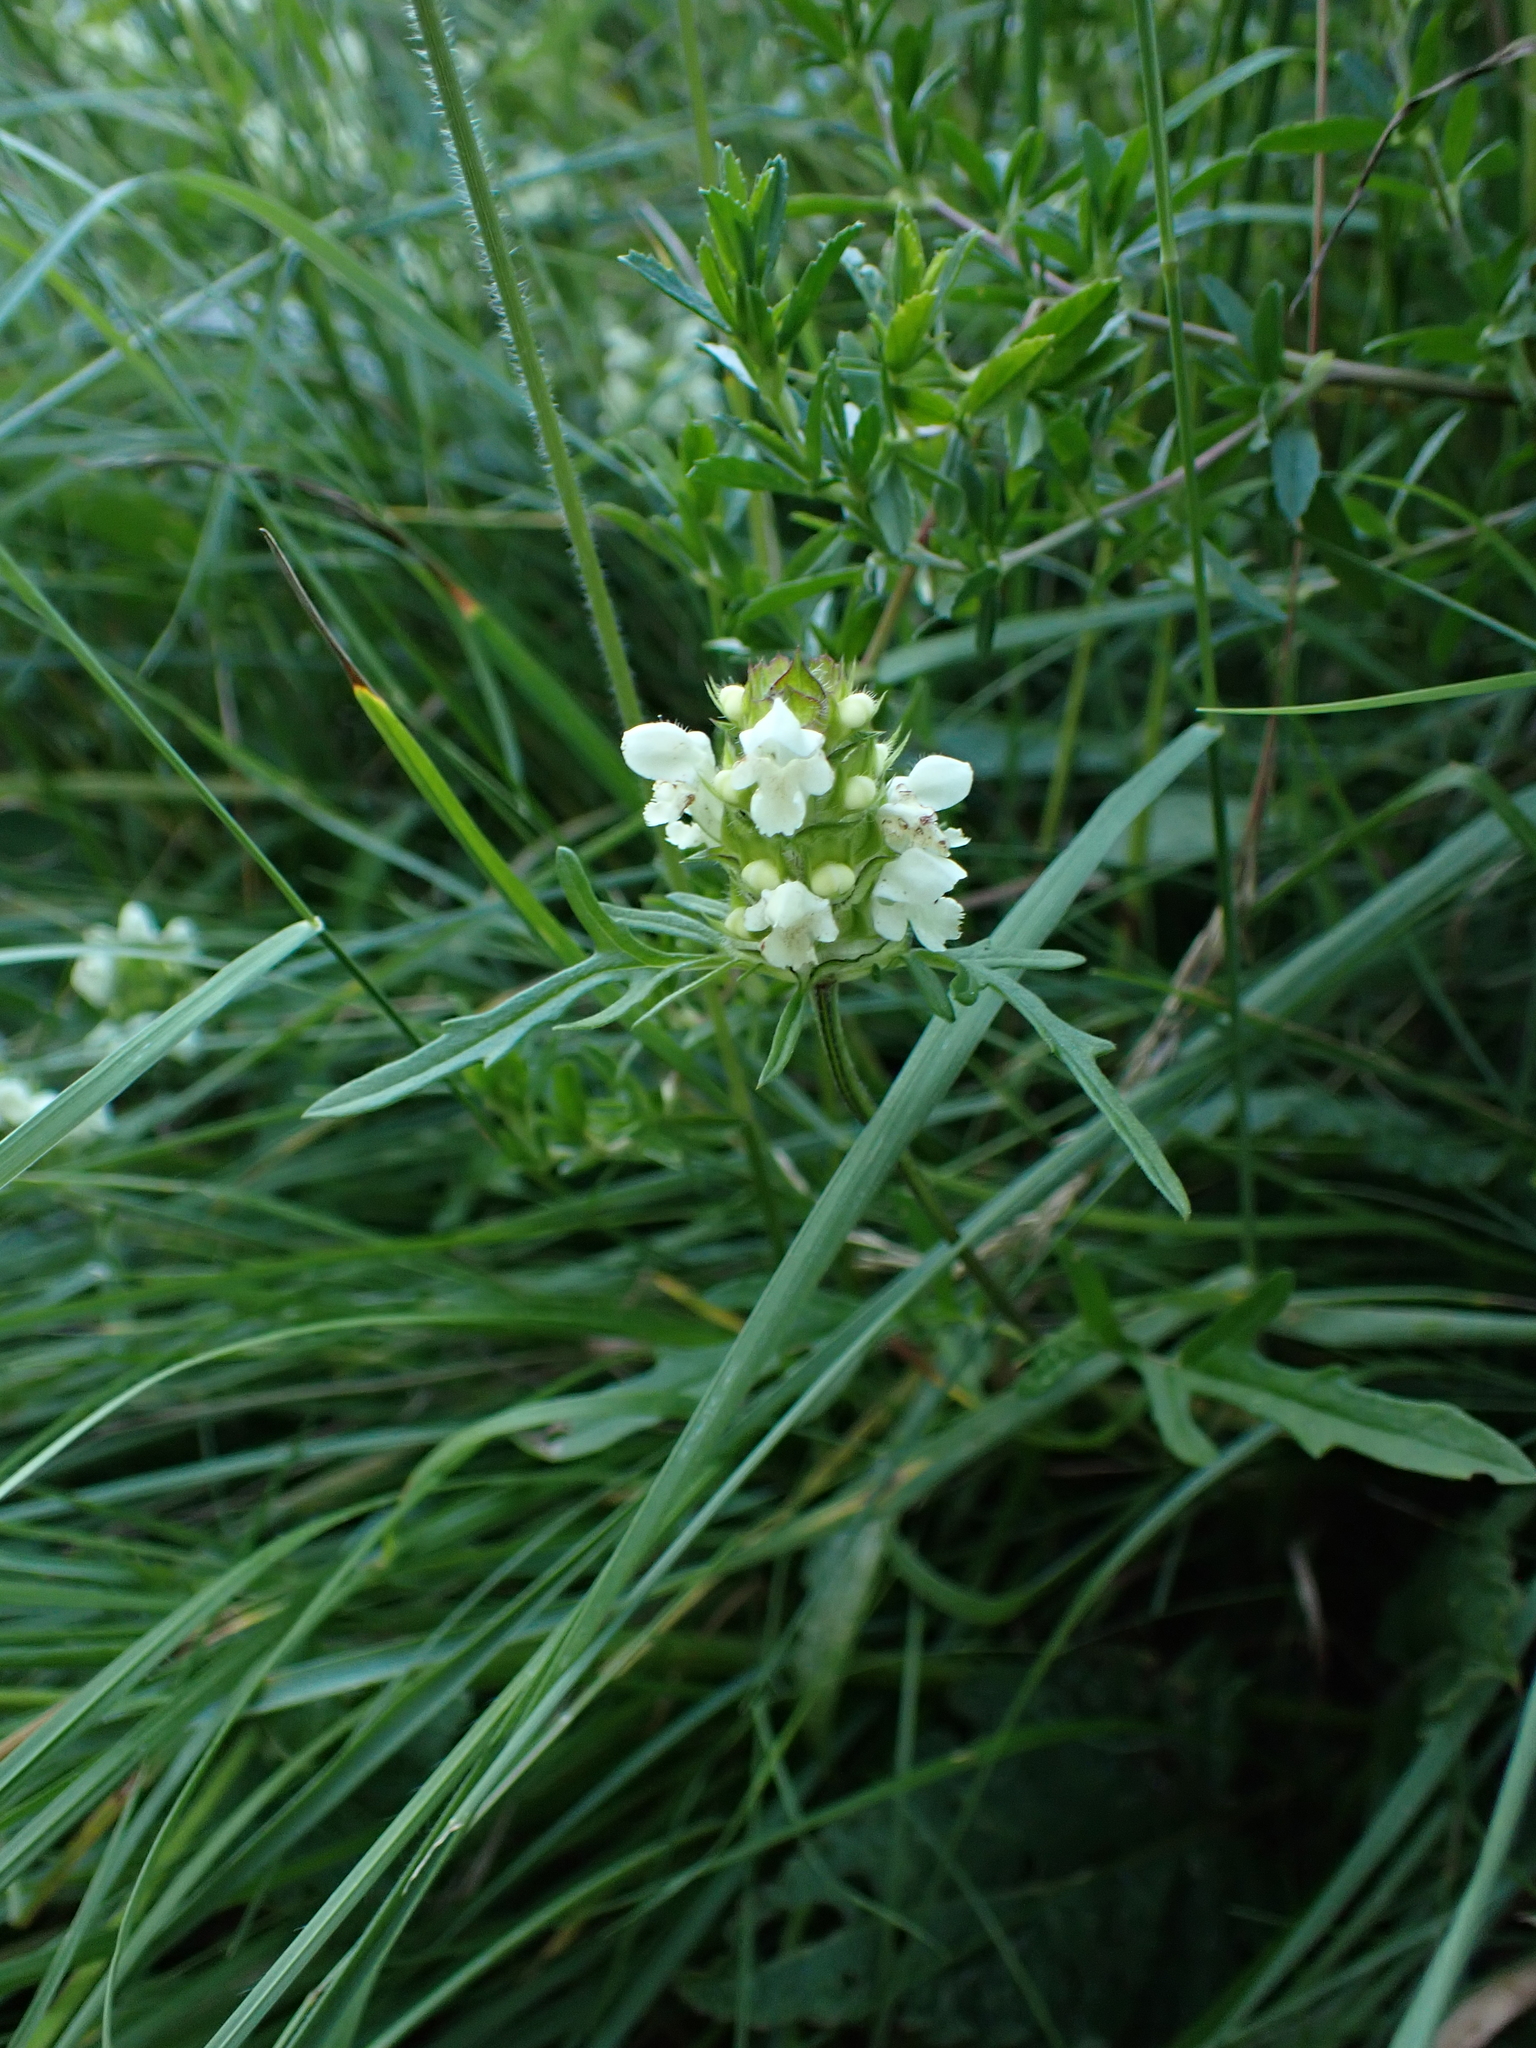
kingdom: Plantae
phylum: Tracheophyta
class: Magnoliopsida
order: Lamiales
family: Lamiaceae
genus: Prunella
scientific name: Prunella laciniata
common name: Cut-leaved selfheal
